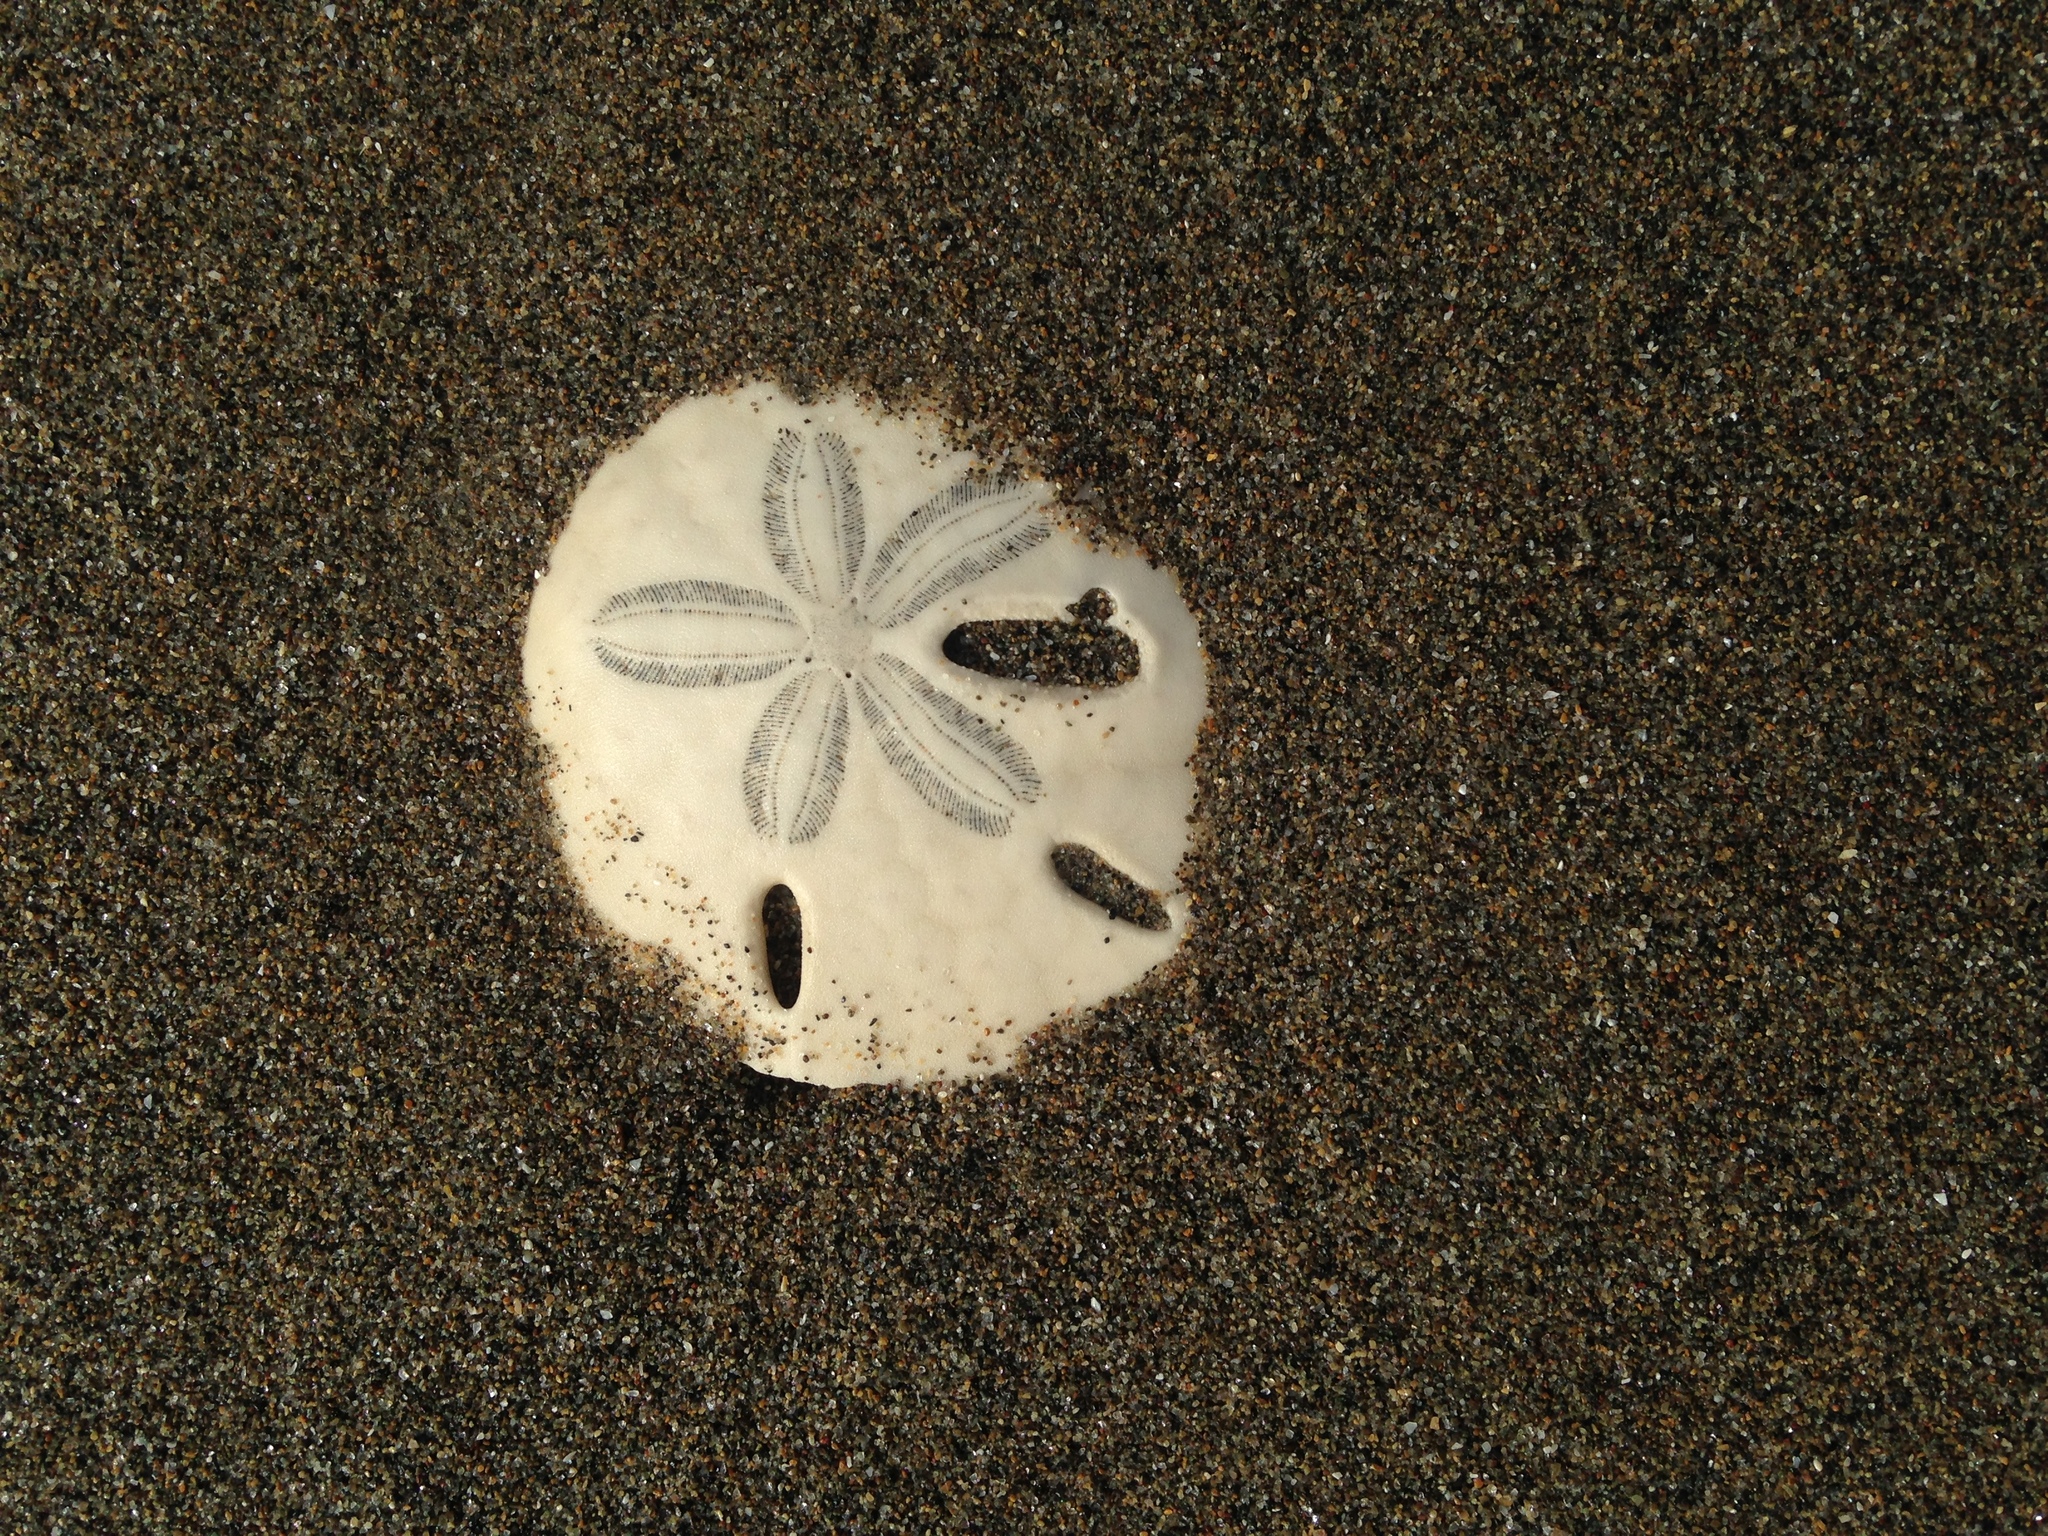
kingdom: Animalia
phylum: Echinodermata
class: Echinoidea
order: Echinolampadacea
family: Mellitidae
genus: Mellita
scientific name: Mellita quinquiesperforata
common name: Sand dollar
